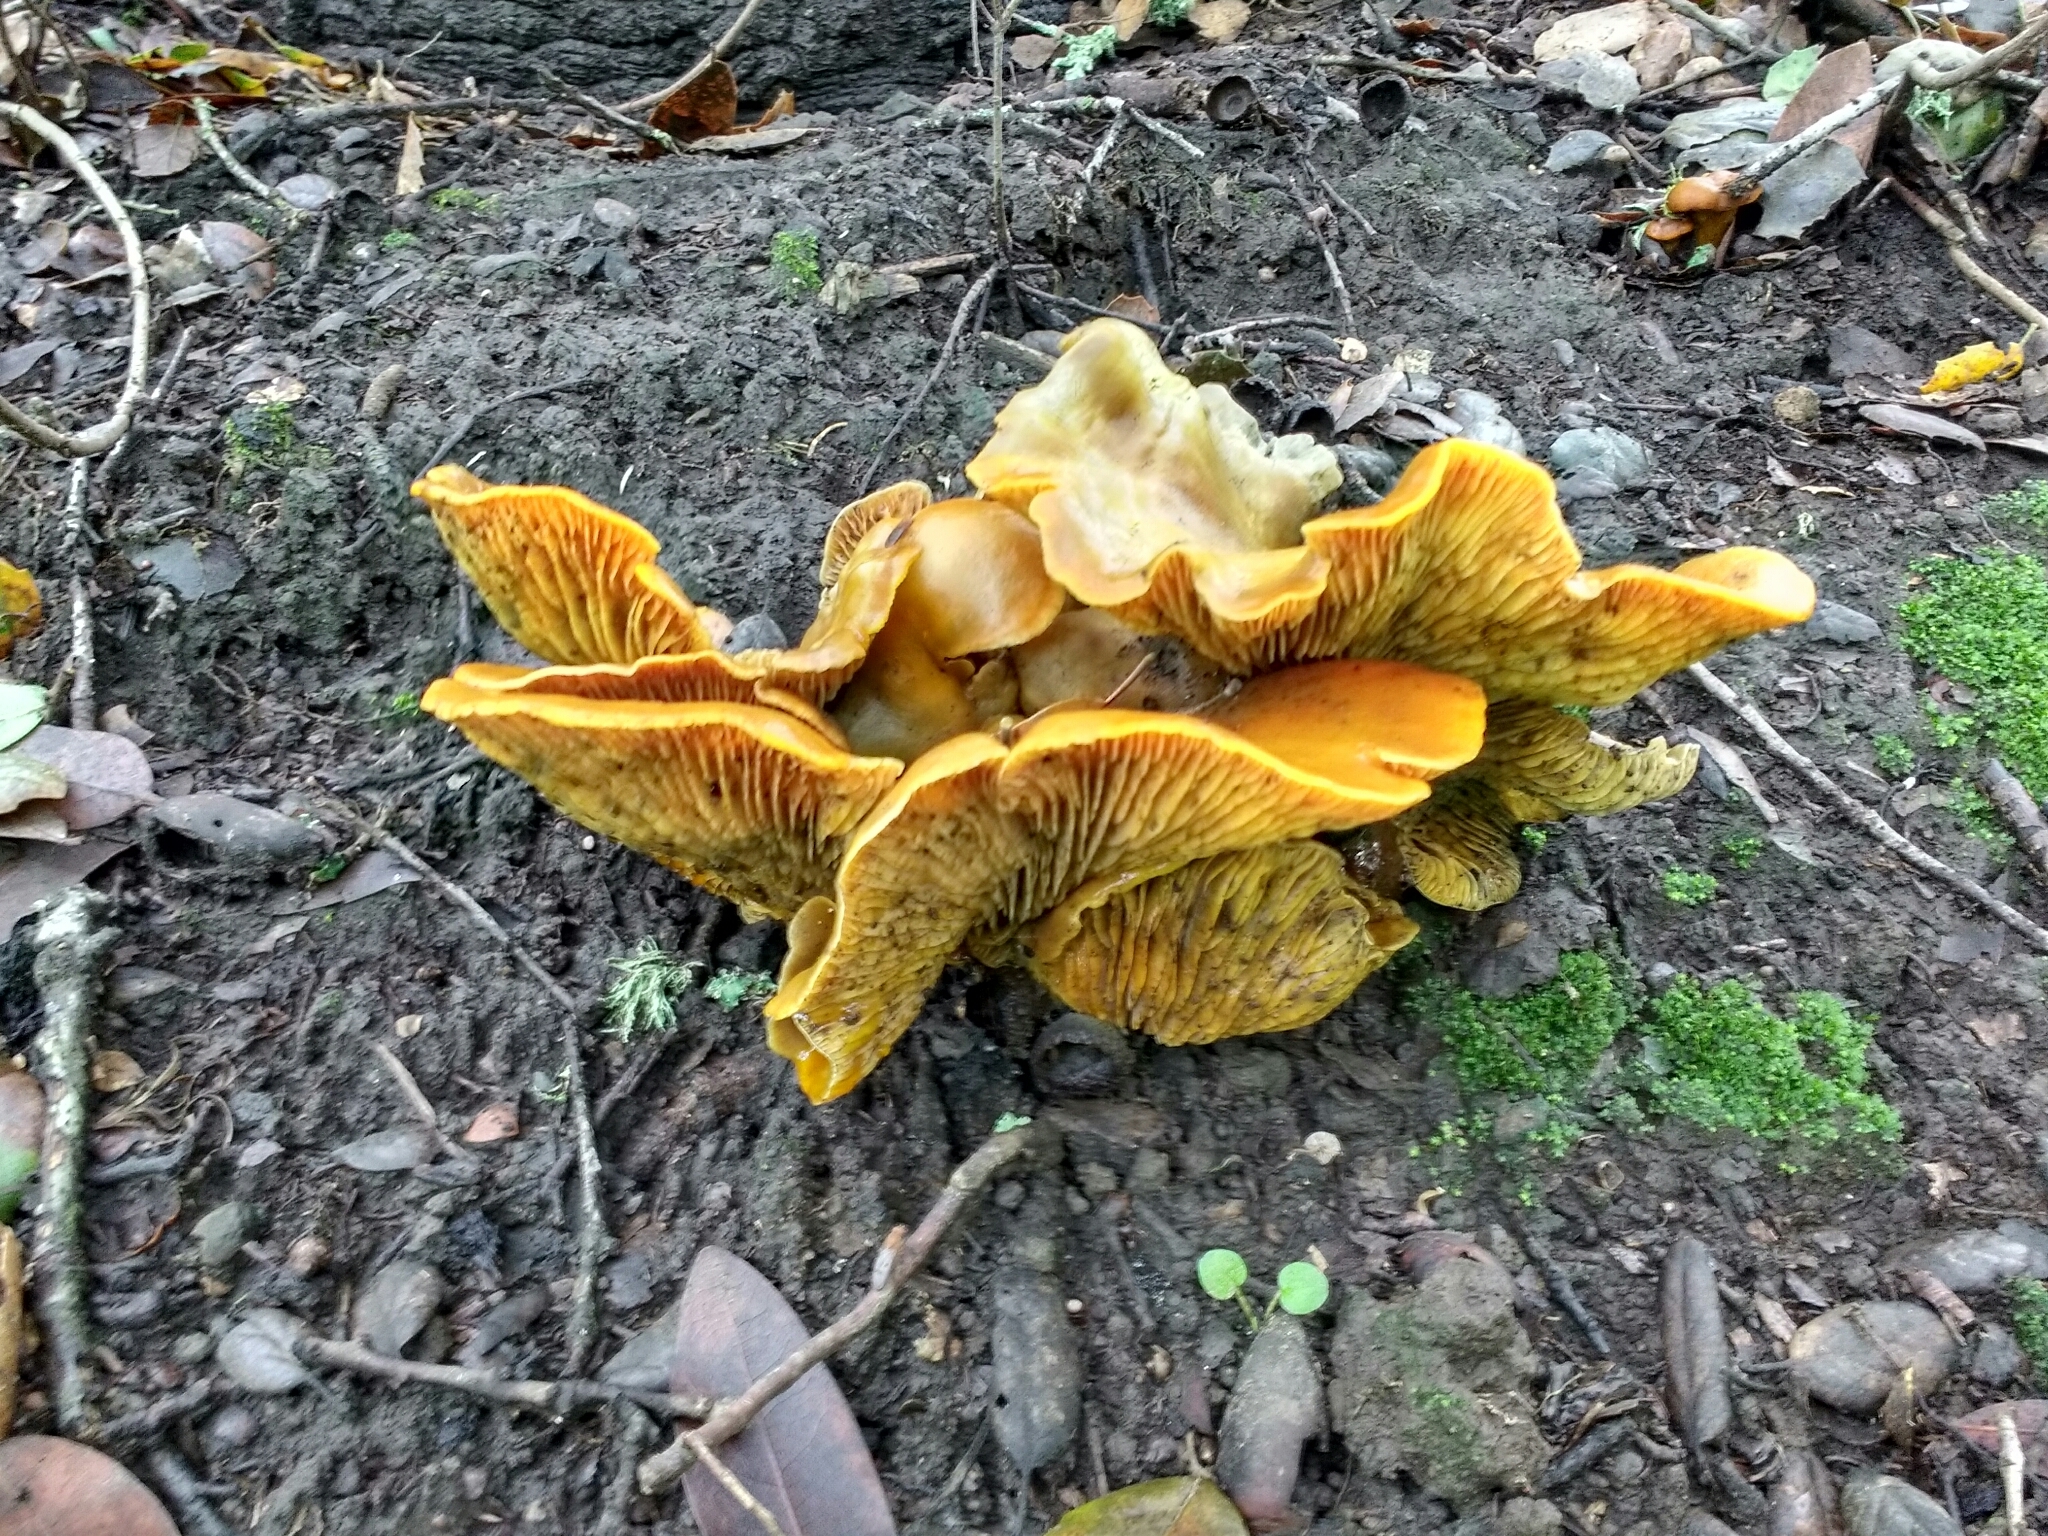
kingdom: Fungi
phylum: Basidiomycota
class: Agaricomycetes
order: Agaricales
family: Omphalotaceae
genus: Omphalotus
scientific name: Omphalotus olivascens
